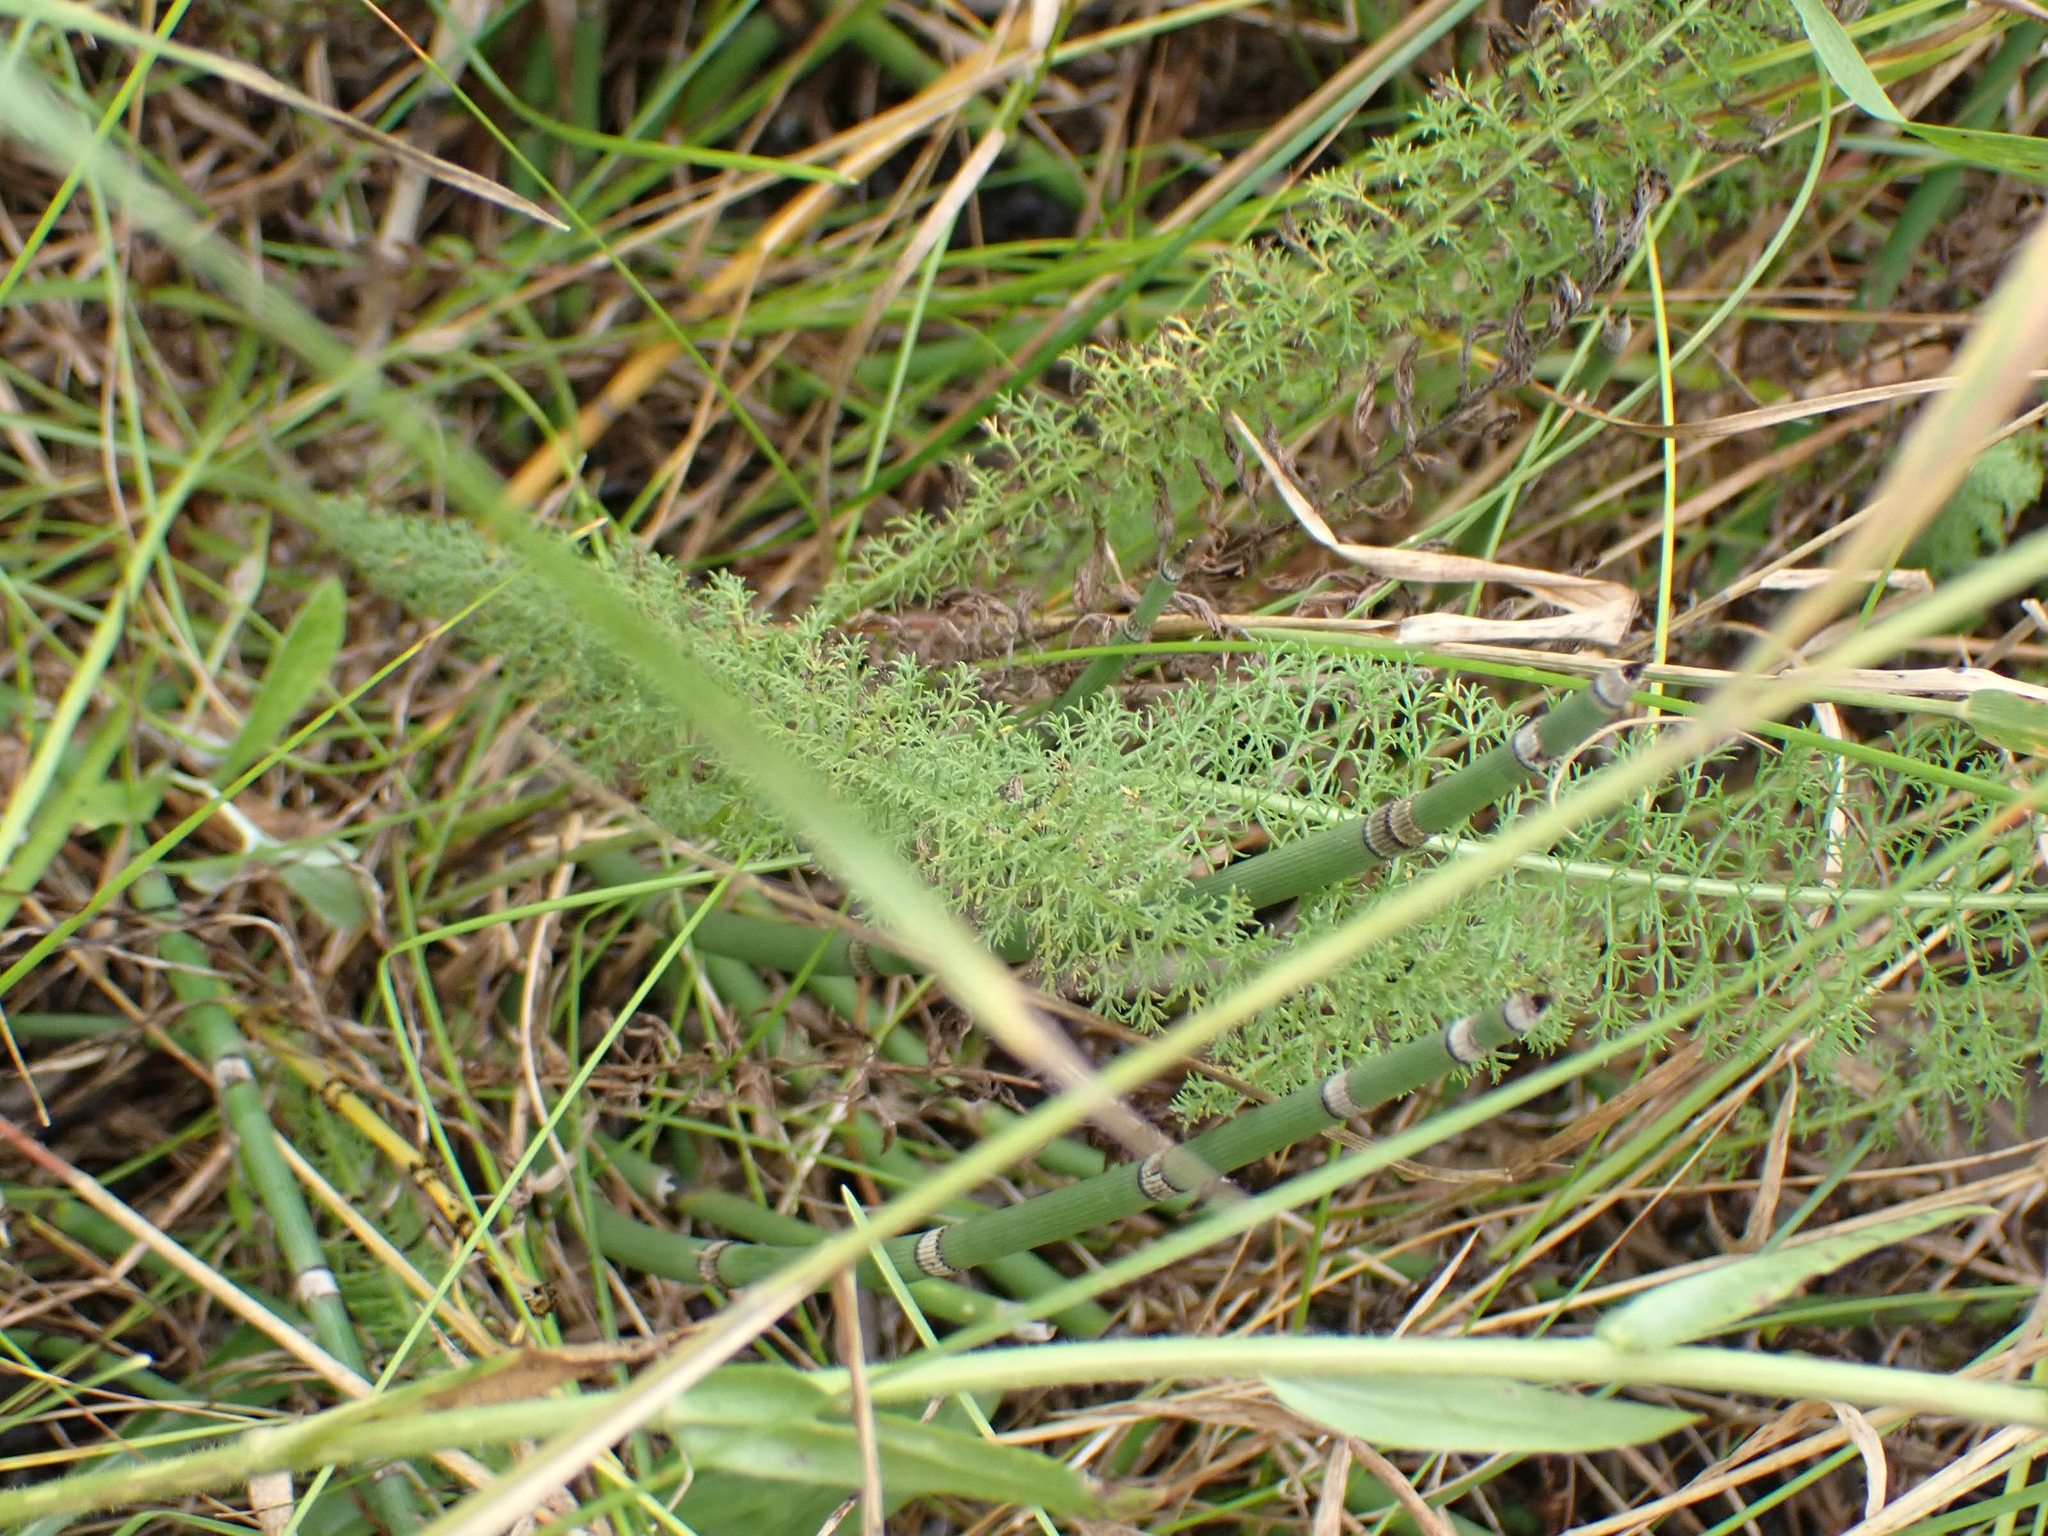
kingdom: Plantae
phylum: Tracheophyta
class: Magnoliopsida
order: Asterales
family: Asteraceae
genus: Achillea
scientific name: Achillea millefolium
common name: Yarrow
